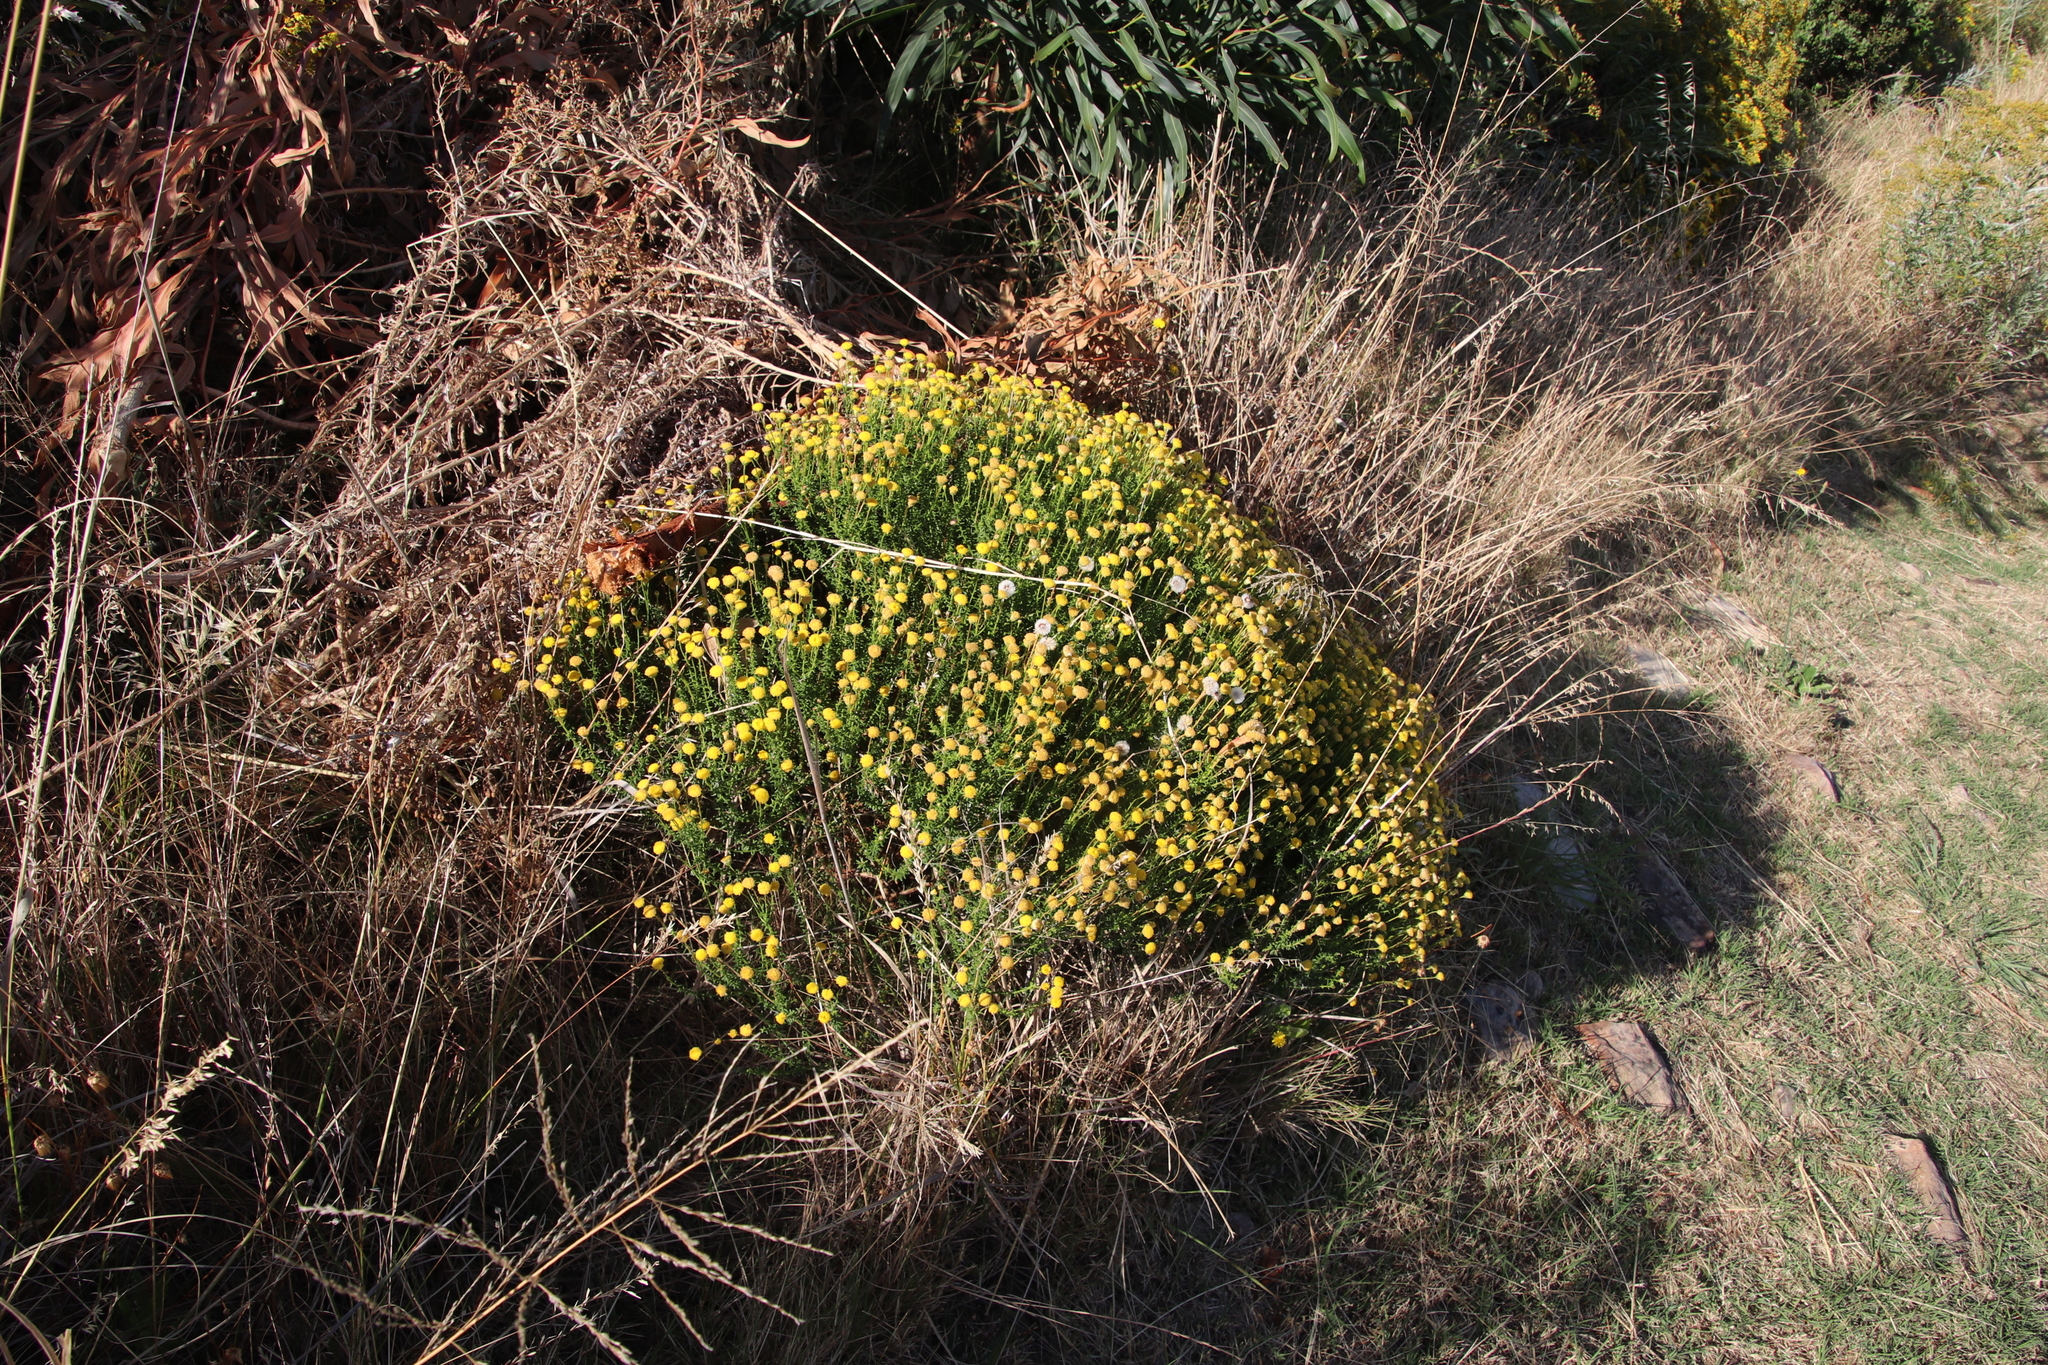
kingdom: Plantae
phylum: Tracheophyta
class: Magnoliopsida
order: Asterales
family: Asteraceae
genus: Chrysocoma
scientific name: Chrysocoma cernua
